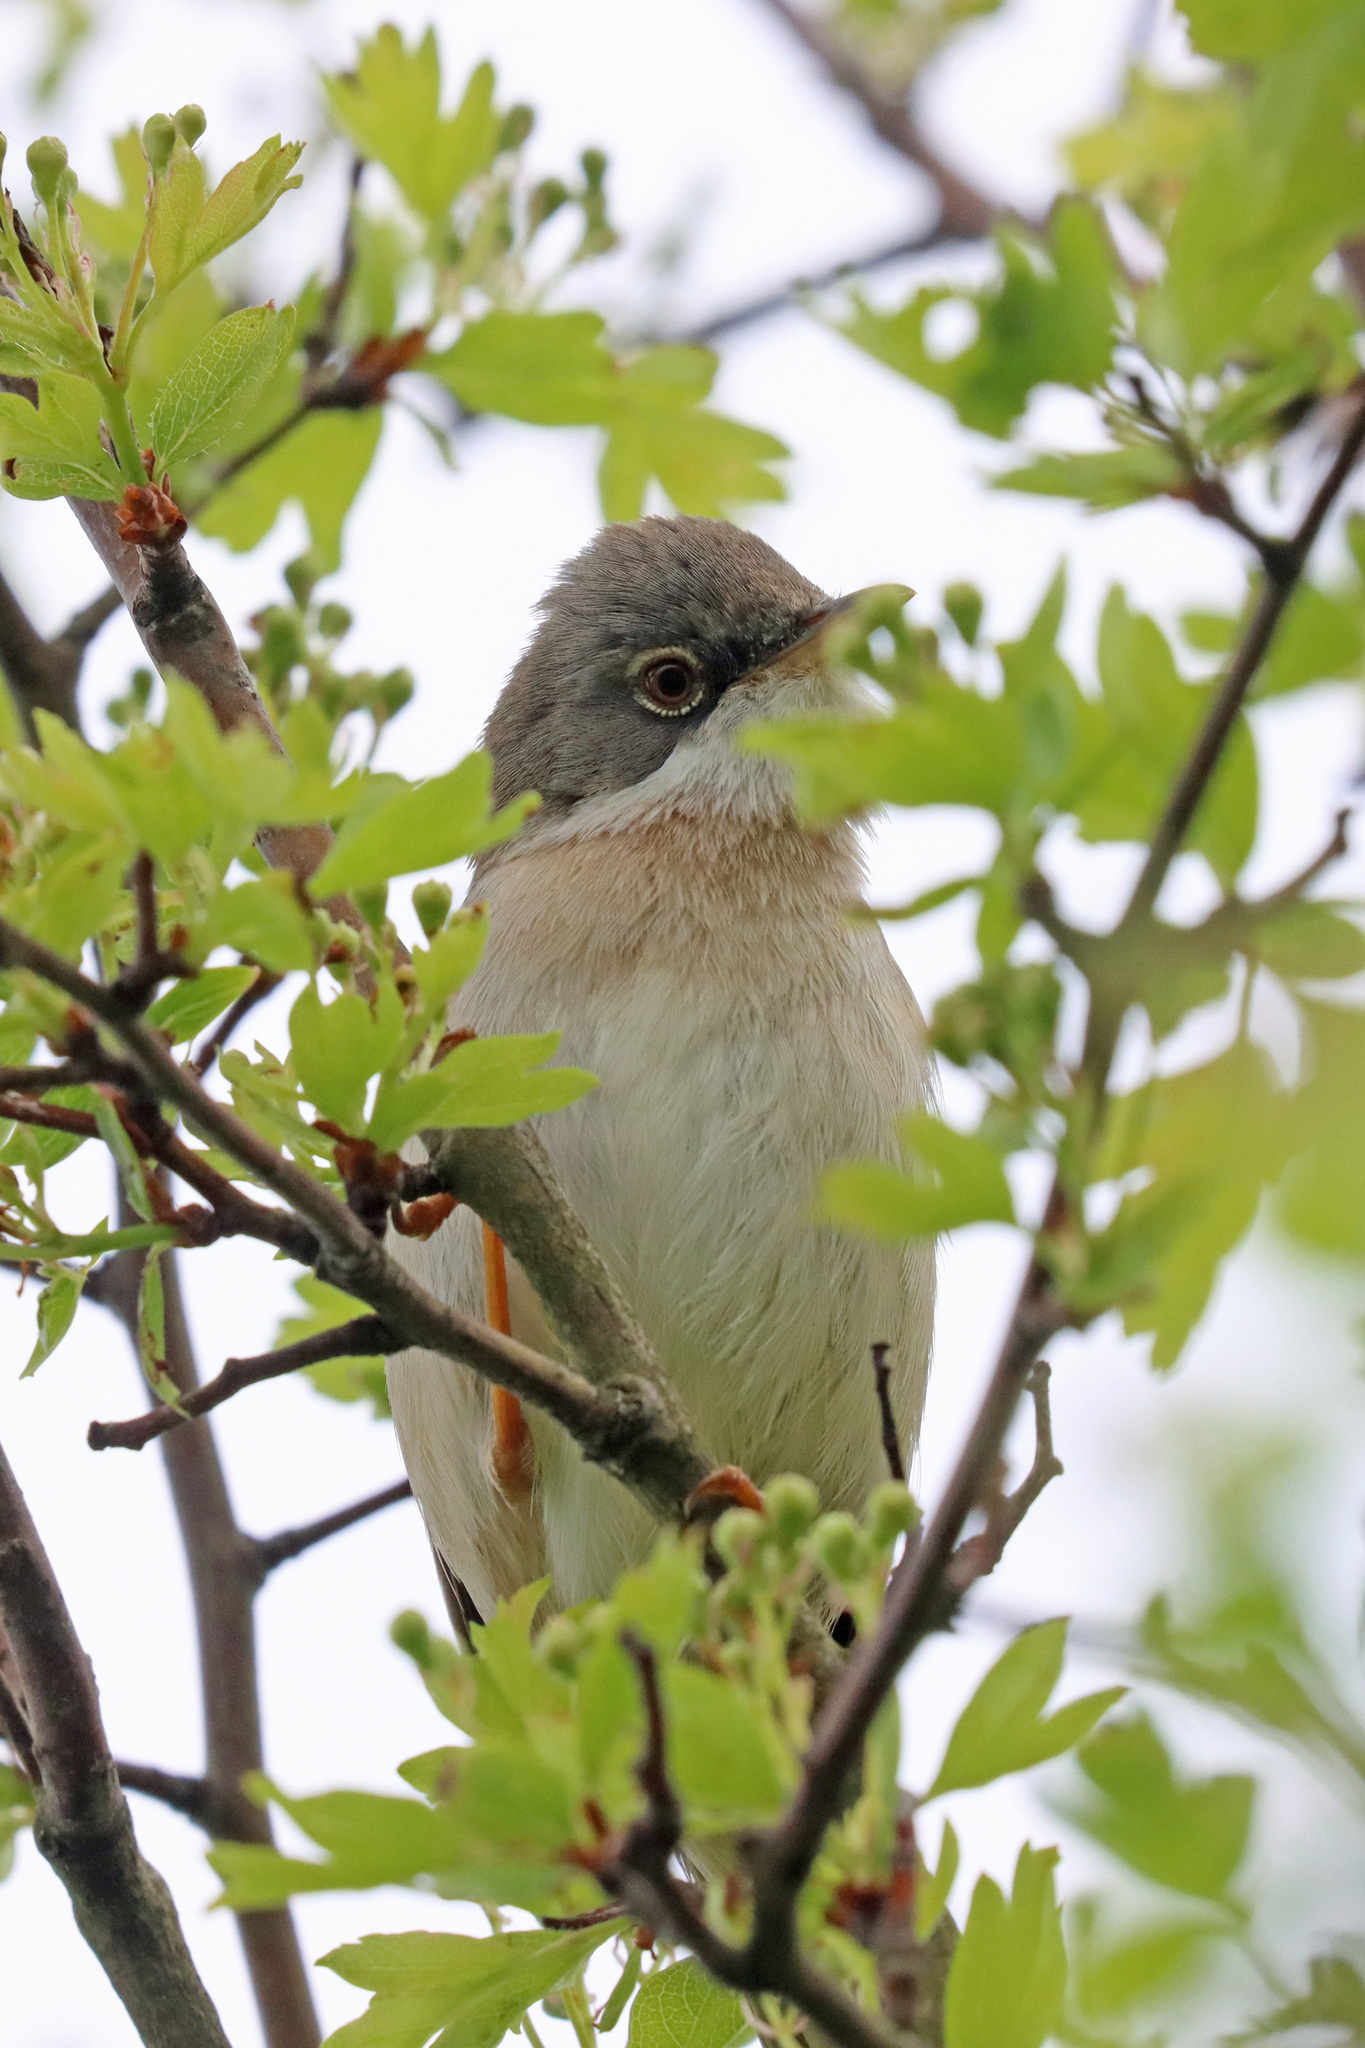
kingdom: Animalia
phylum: Chordata
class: Aves
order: Passeriformes
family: Sylviidae
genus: Sylvia
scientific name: Sylvia communis
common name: Common whitethroat
